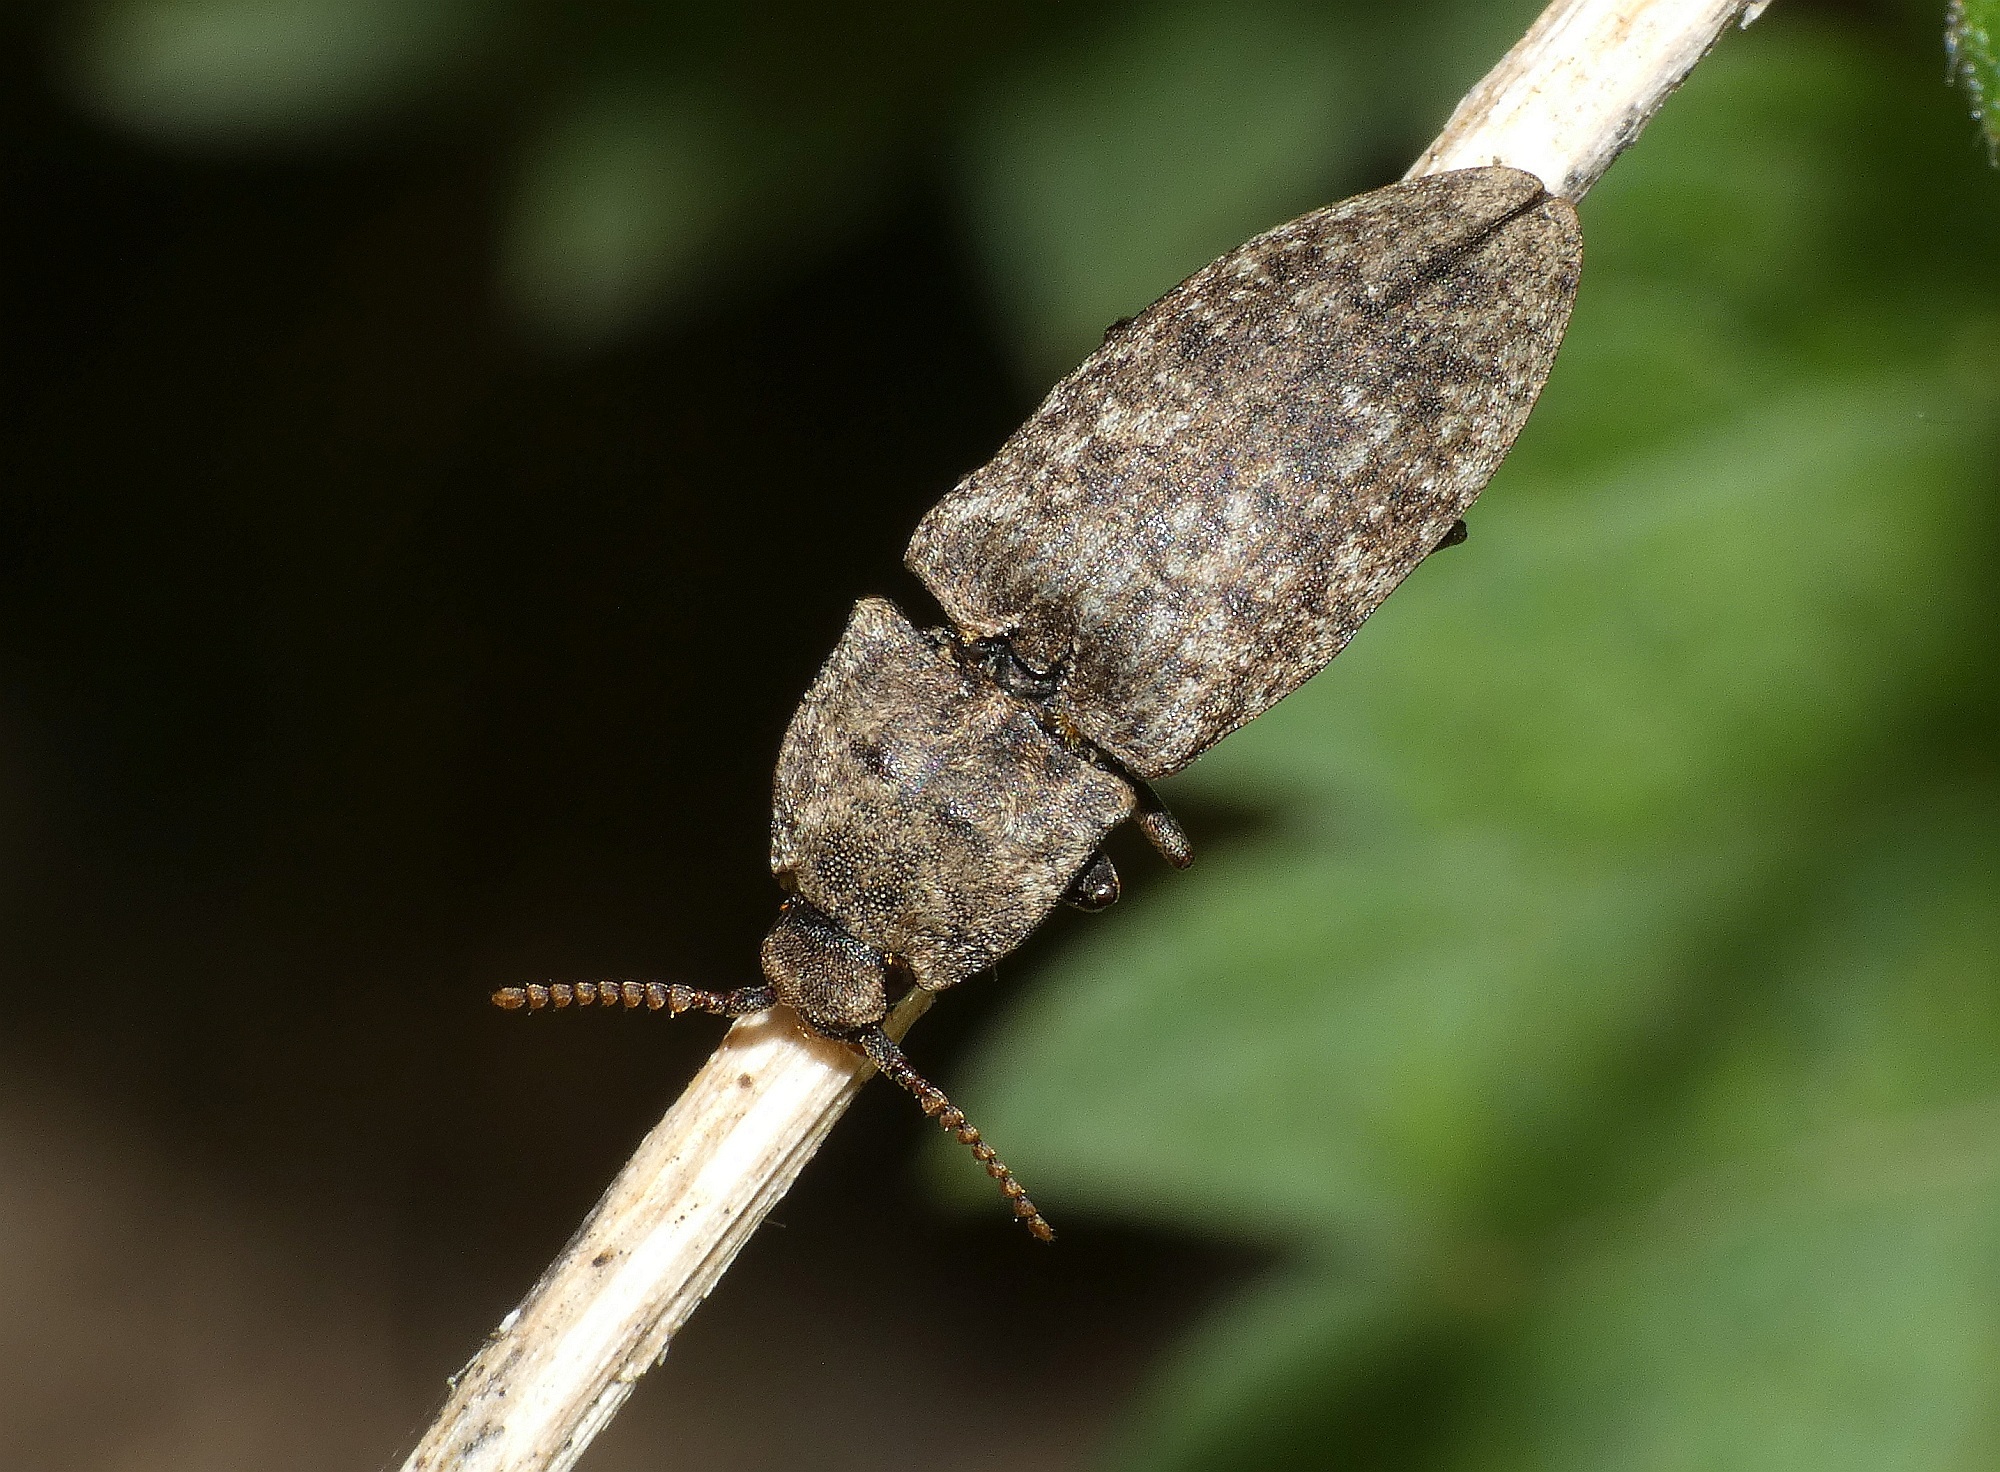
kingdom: Animalia
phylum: Arthropoda
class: Insecta
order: Coleoptera
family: Elateridae
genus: Agrypnus
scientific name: Agrypnus murinus
